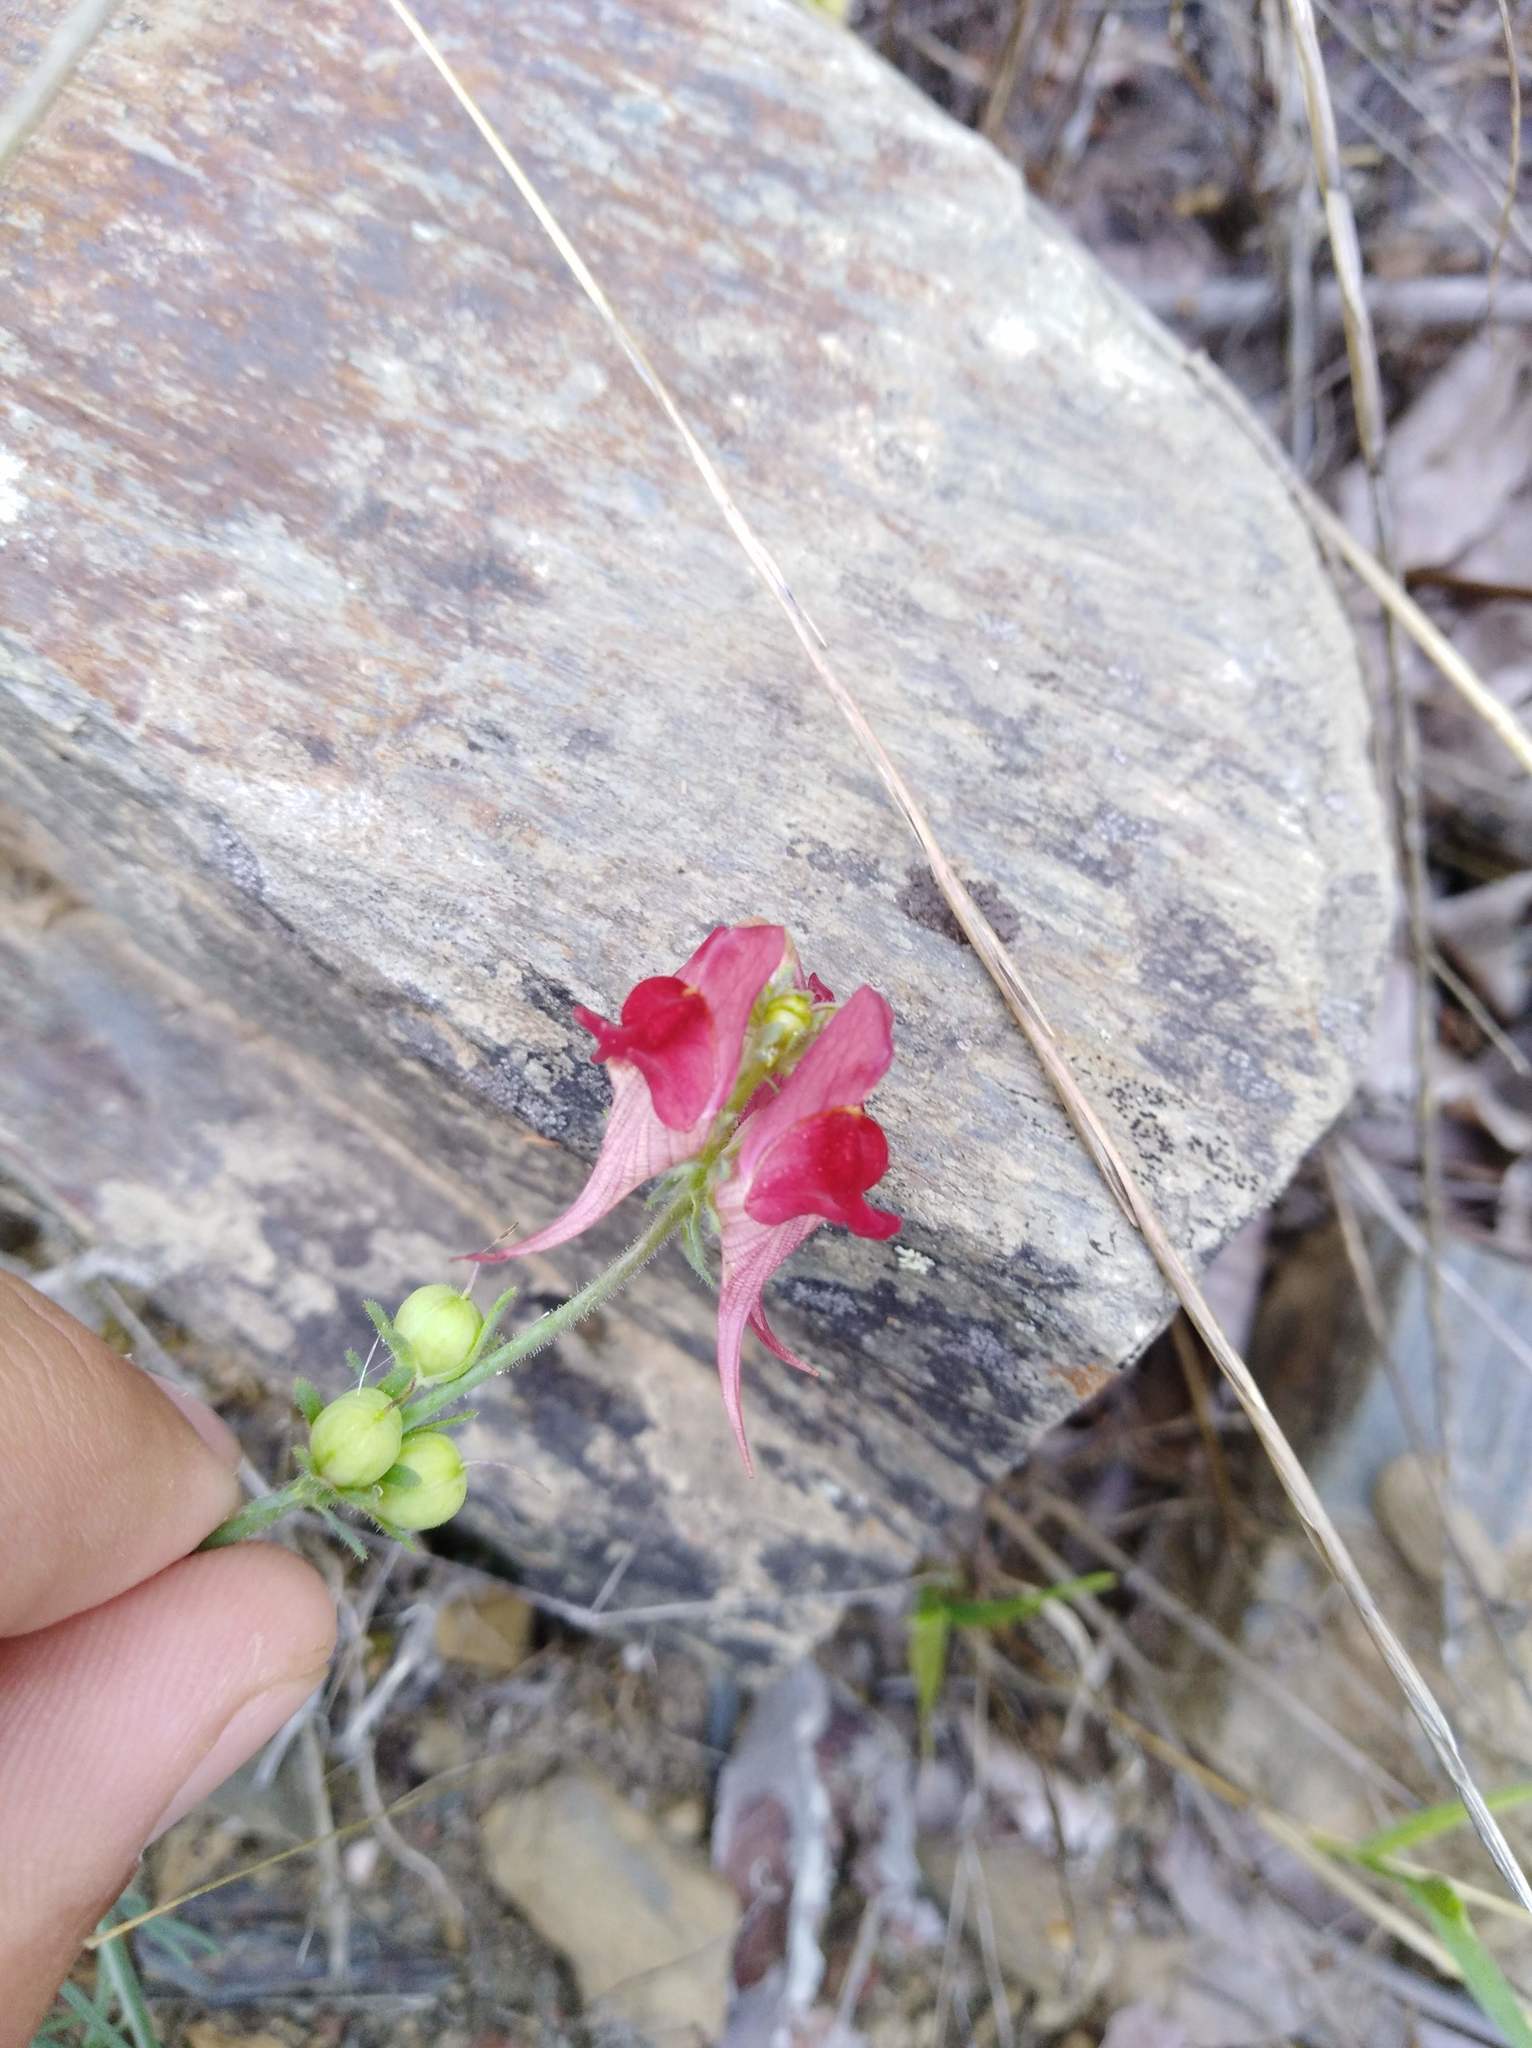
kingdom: Plantae
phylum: Tracheophyta
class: Magnoliopsida
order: Lamiales
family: Plantaginaceae
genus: Linaria
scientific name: Linaria aeruginea
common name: Roadside toadflax
